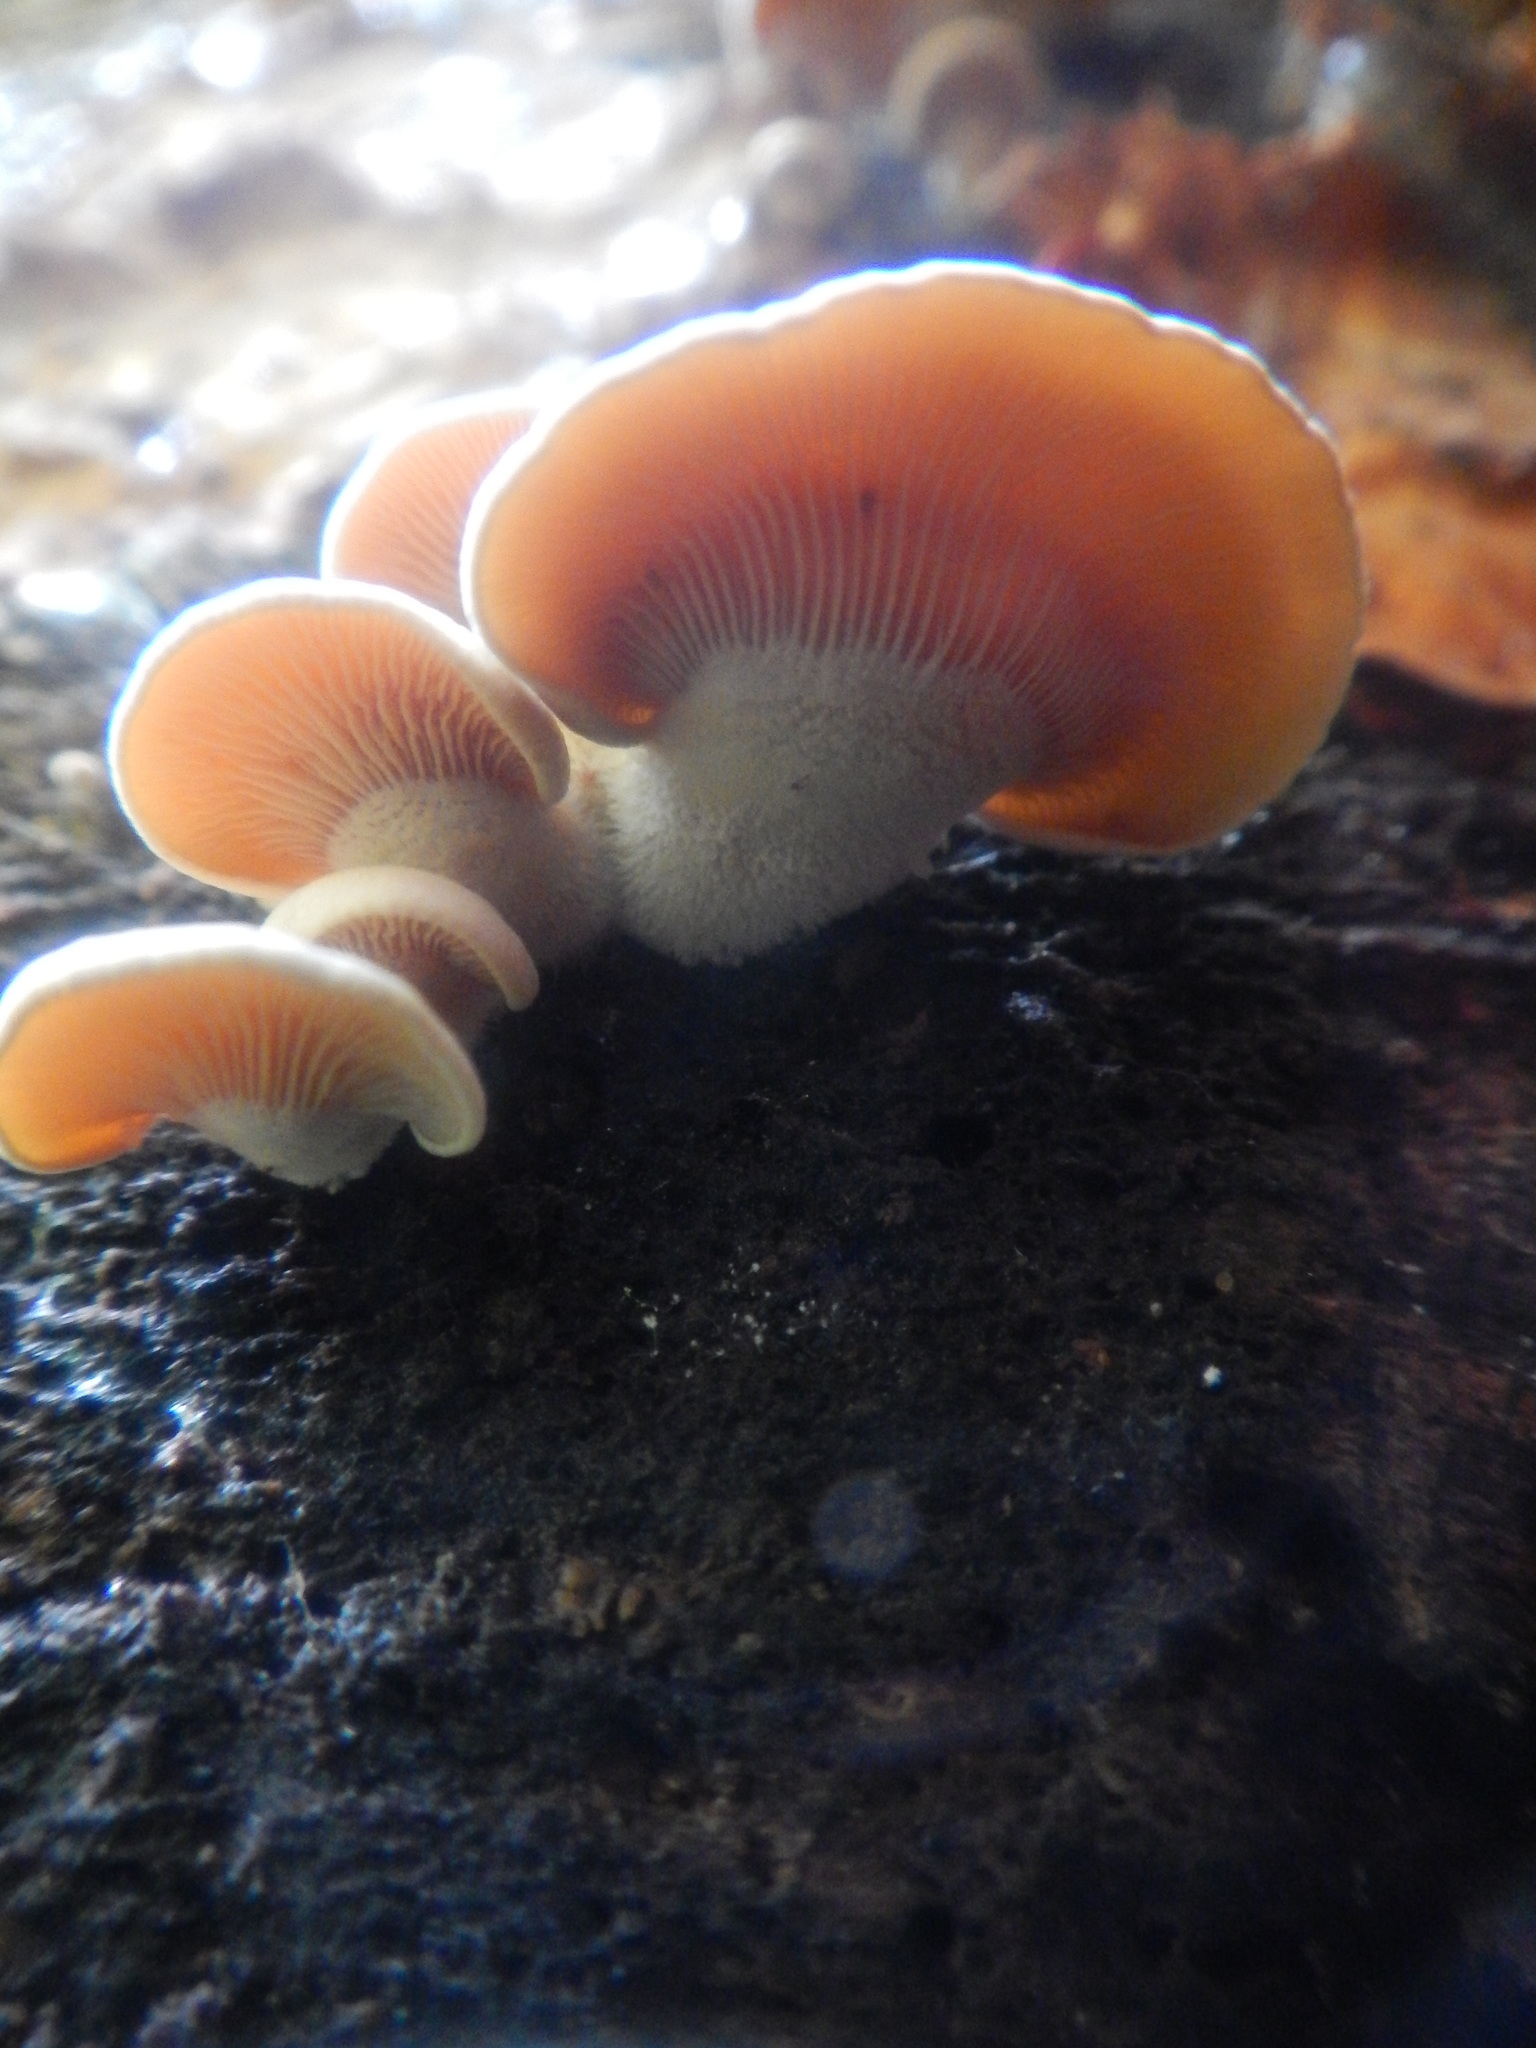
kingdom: Fungi
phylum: Basidiomycota
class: Agaricomycetes
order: Agaricales
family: Mycenaceae
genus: Panellus
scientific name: Panellus stipticus
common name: Bitter oysterling
